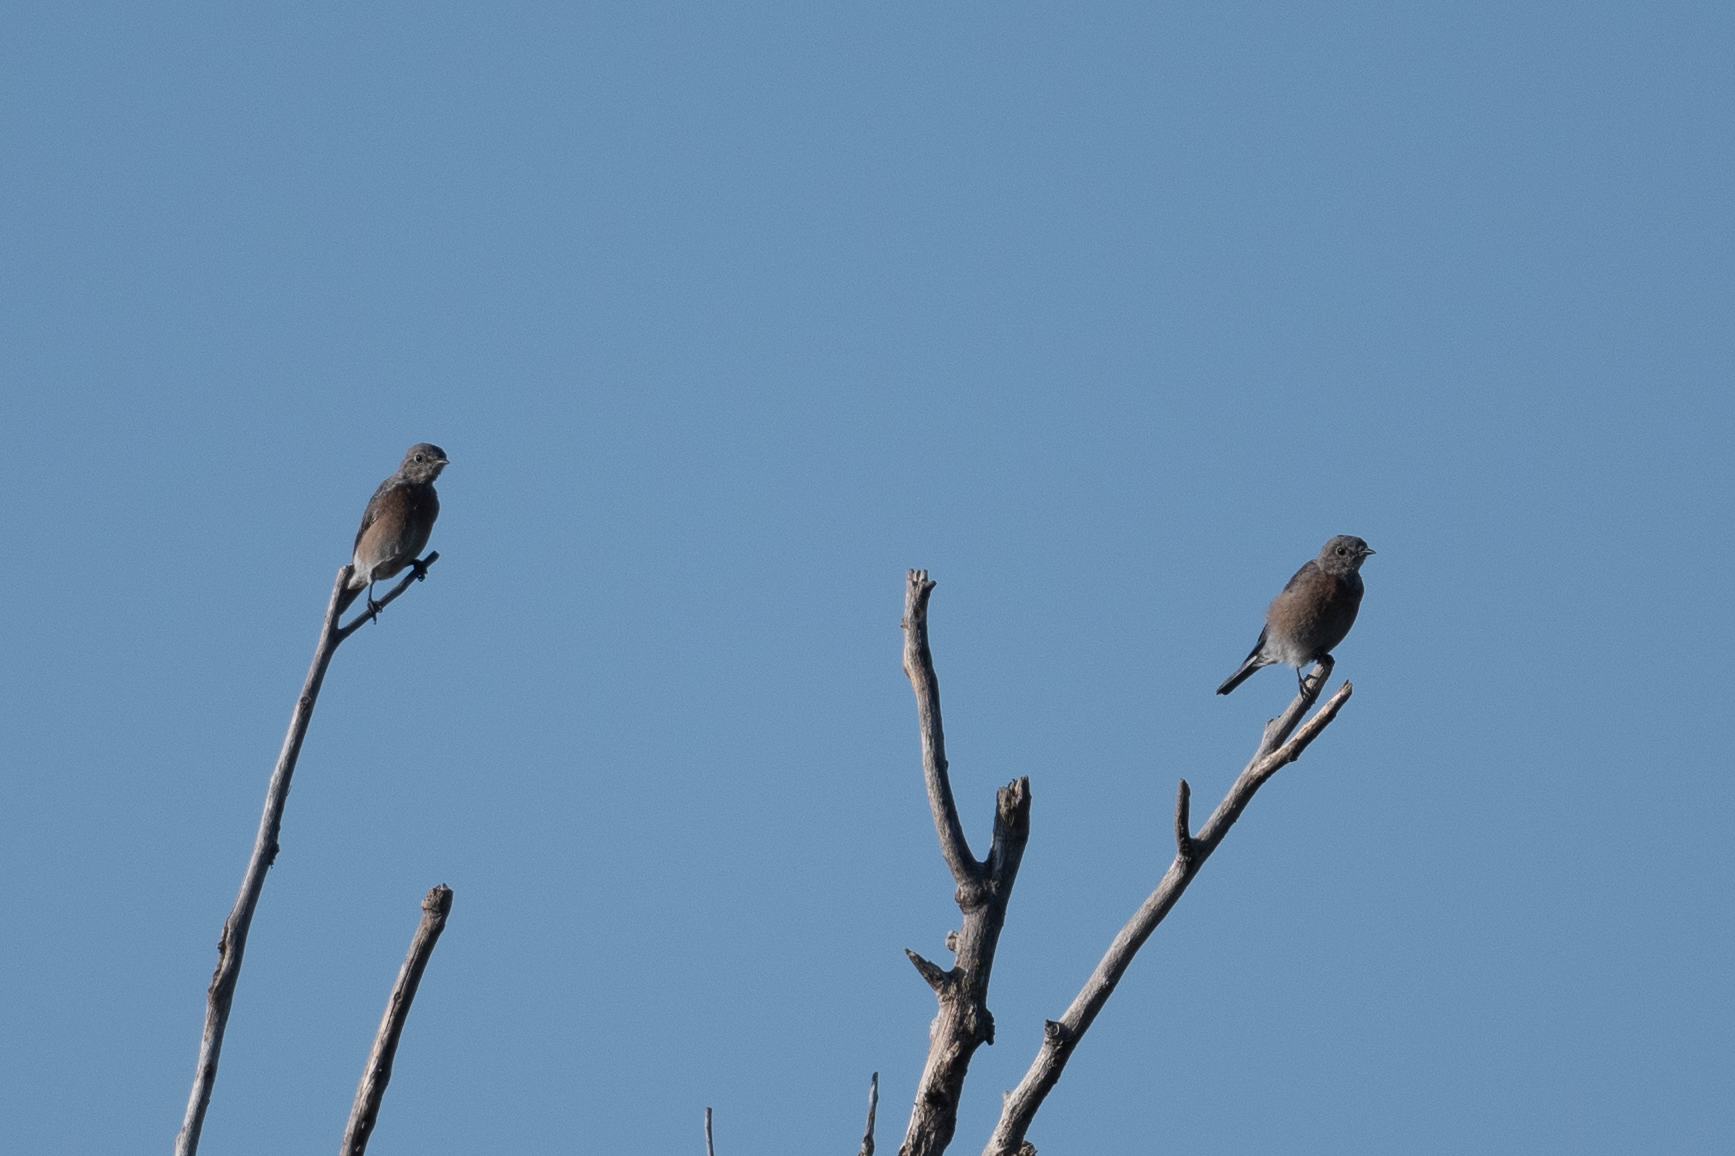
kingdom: Animalia
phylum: Chordata
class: Aves
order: Passeriformes
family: Turdidae
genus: Sialia
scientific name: Sialia mexicana
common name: Western bluebird
